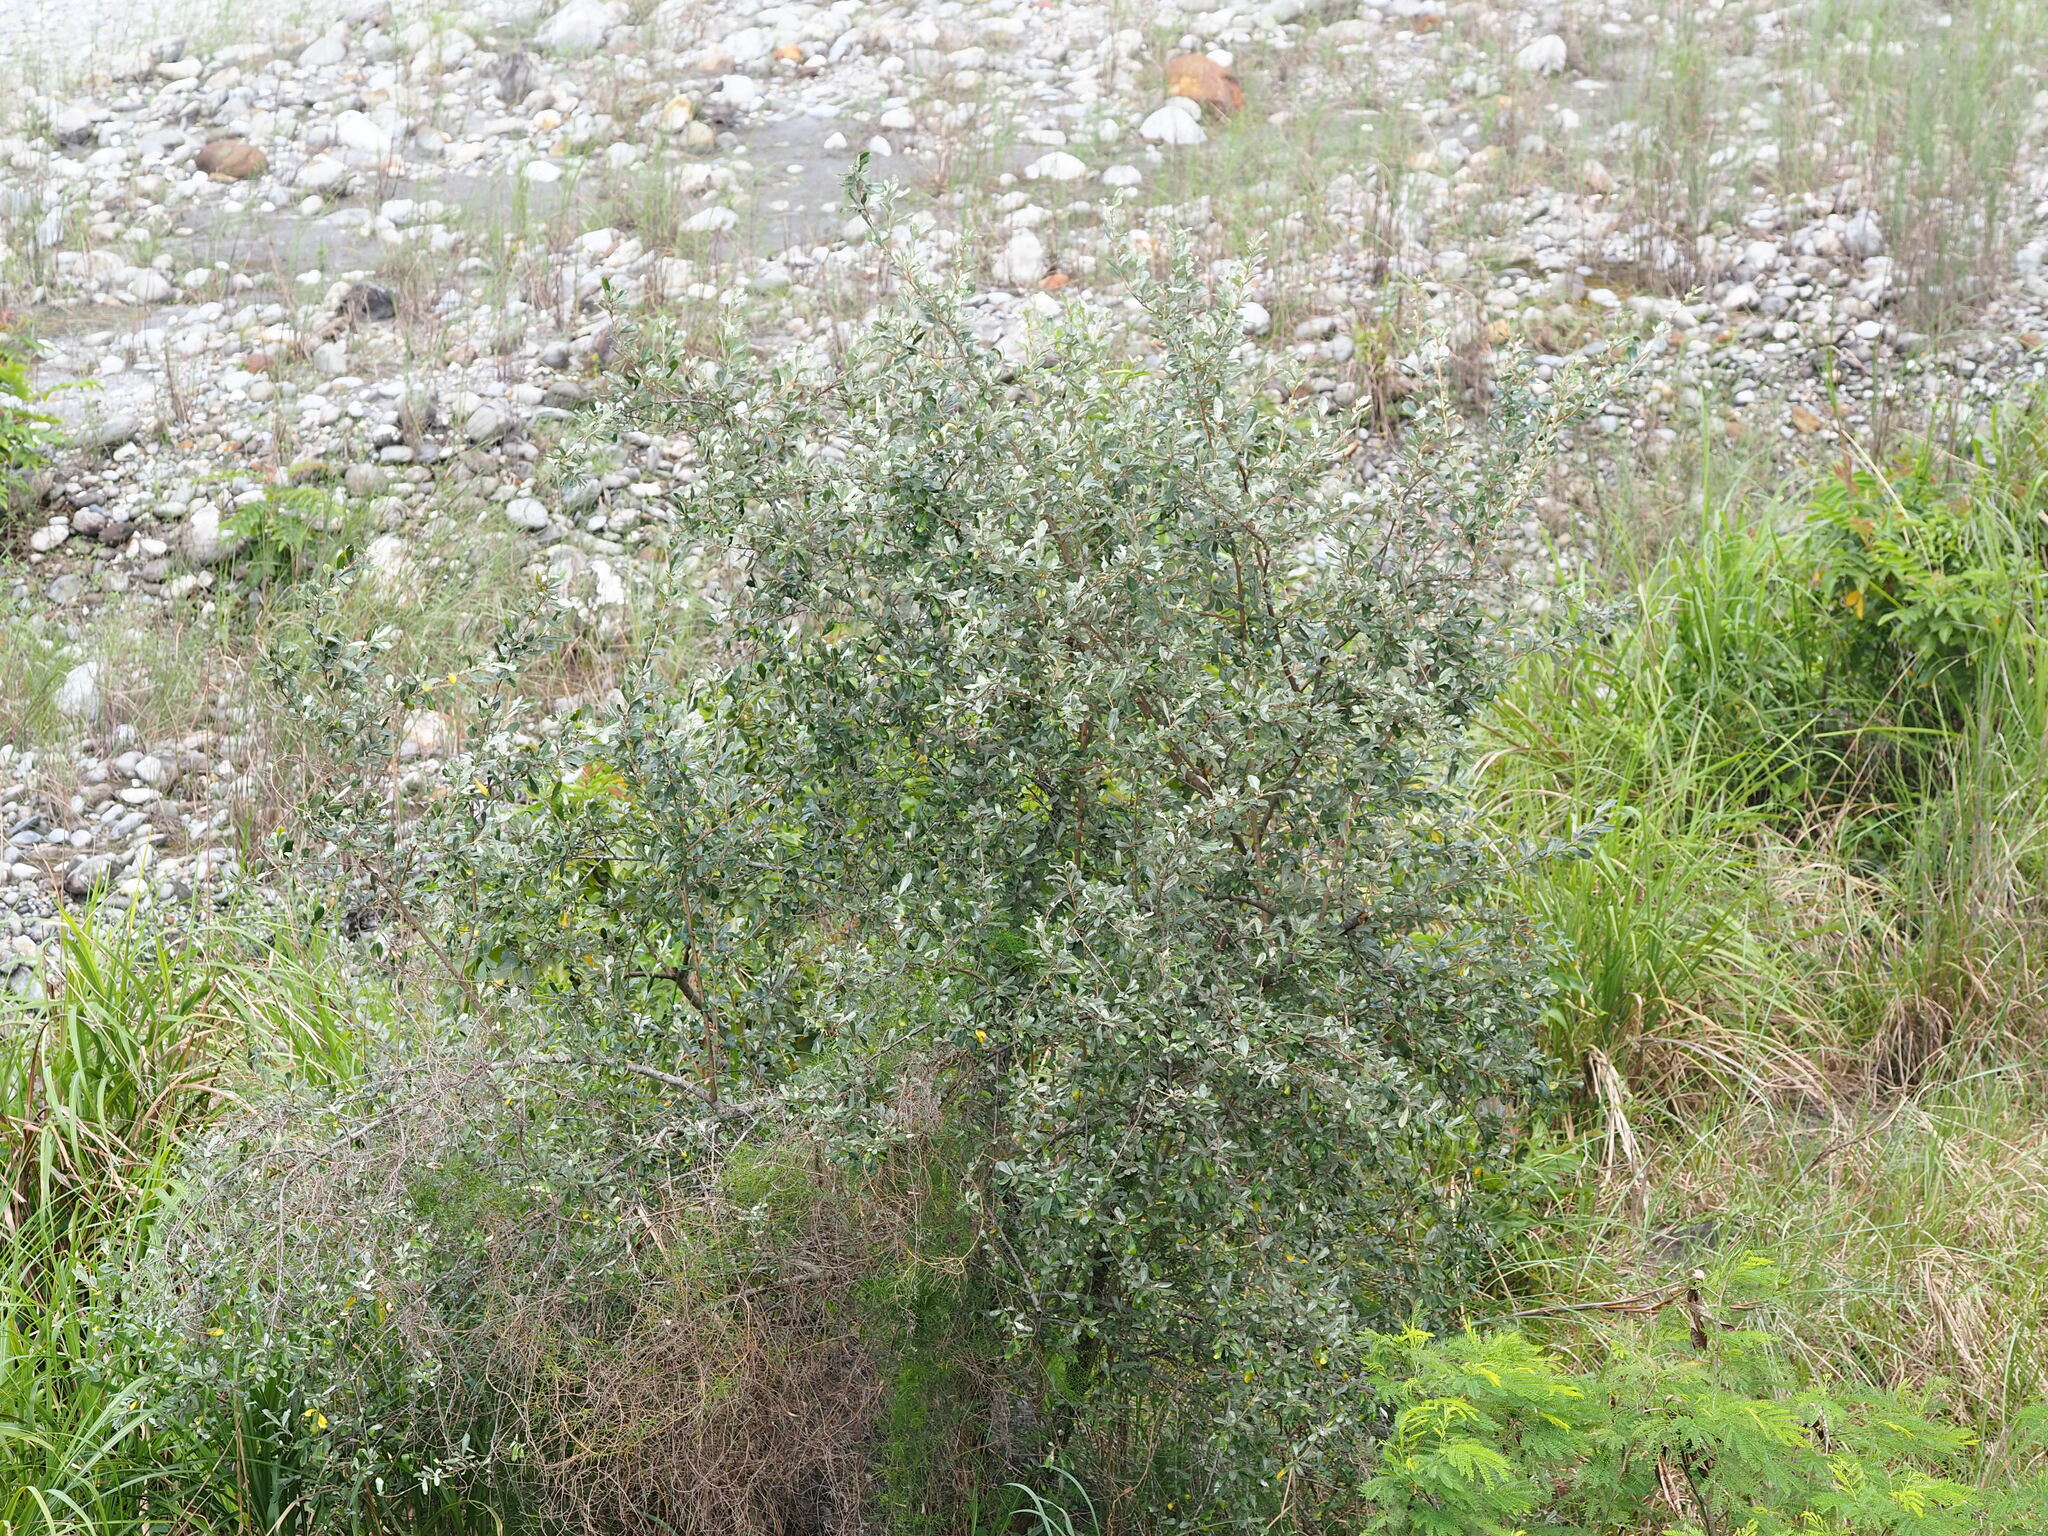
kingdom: Plantae
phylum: Tracheophyta
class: Magnoliopsida
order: Rosales
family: Elaeagnaceae
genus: Elaeagnus
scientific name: Elaeagnus oldhamii
